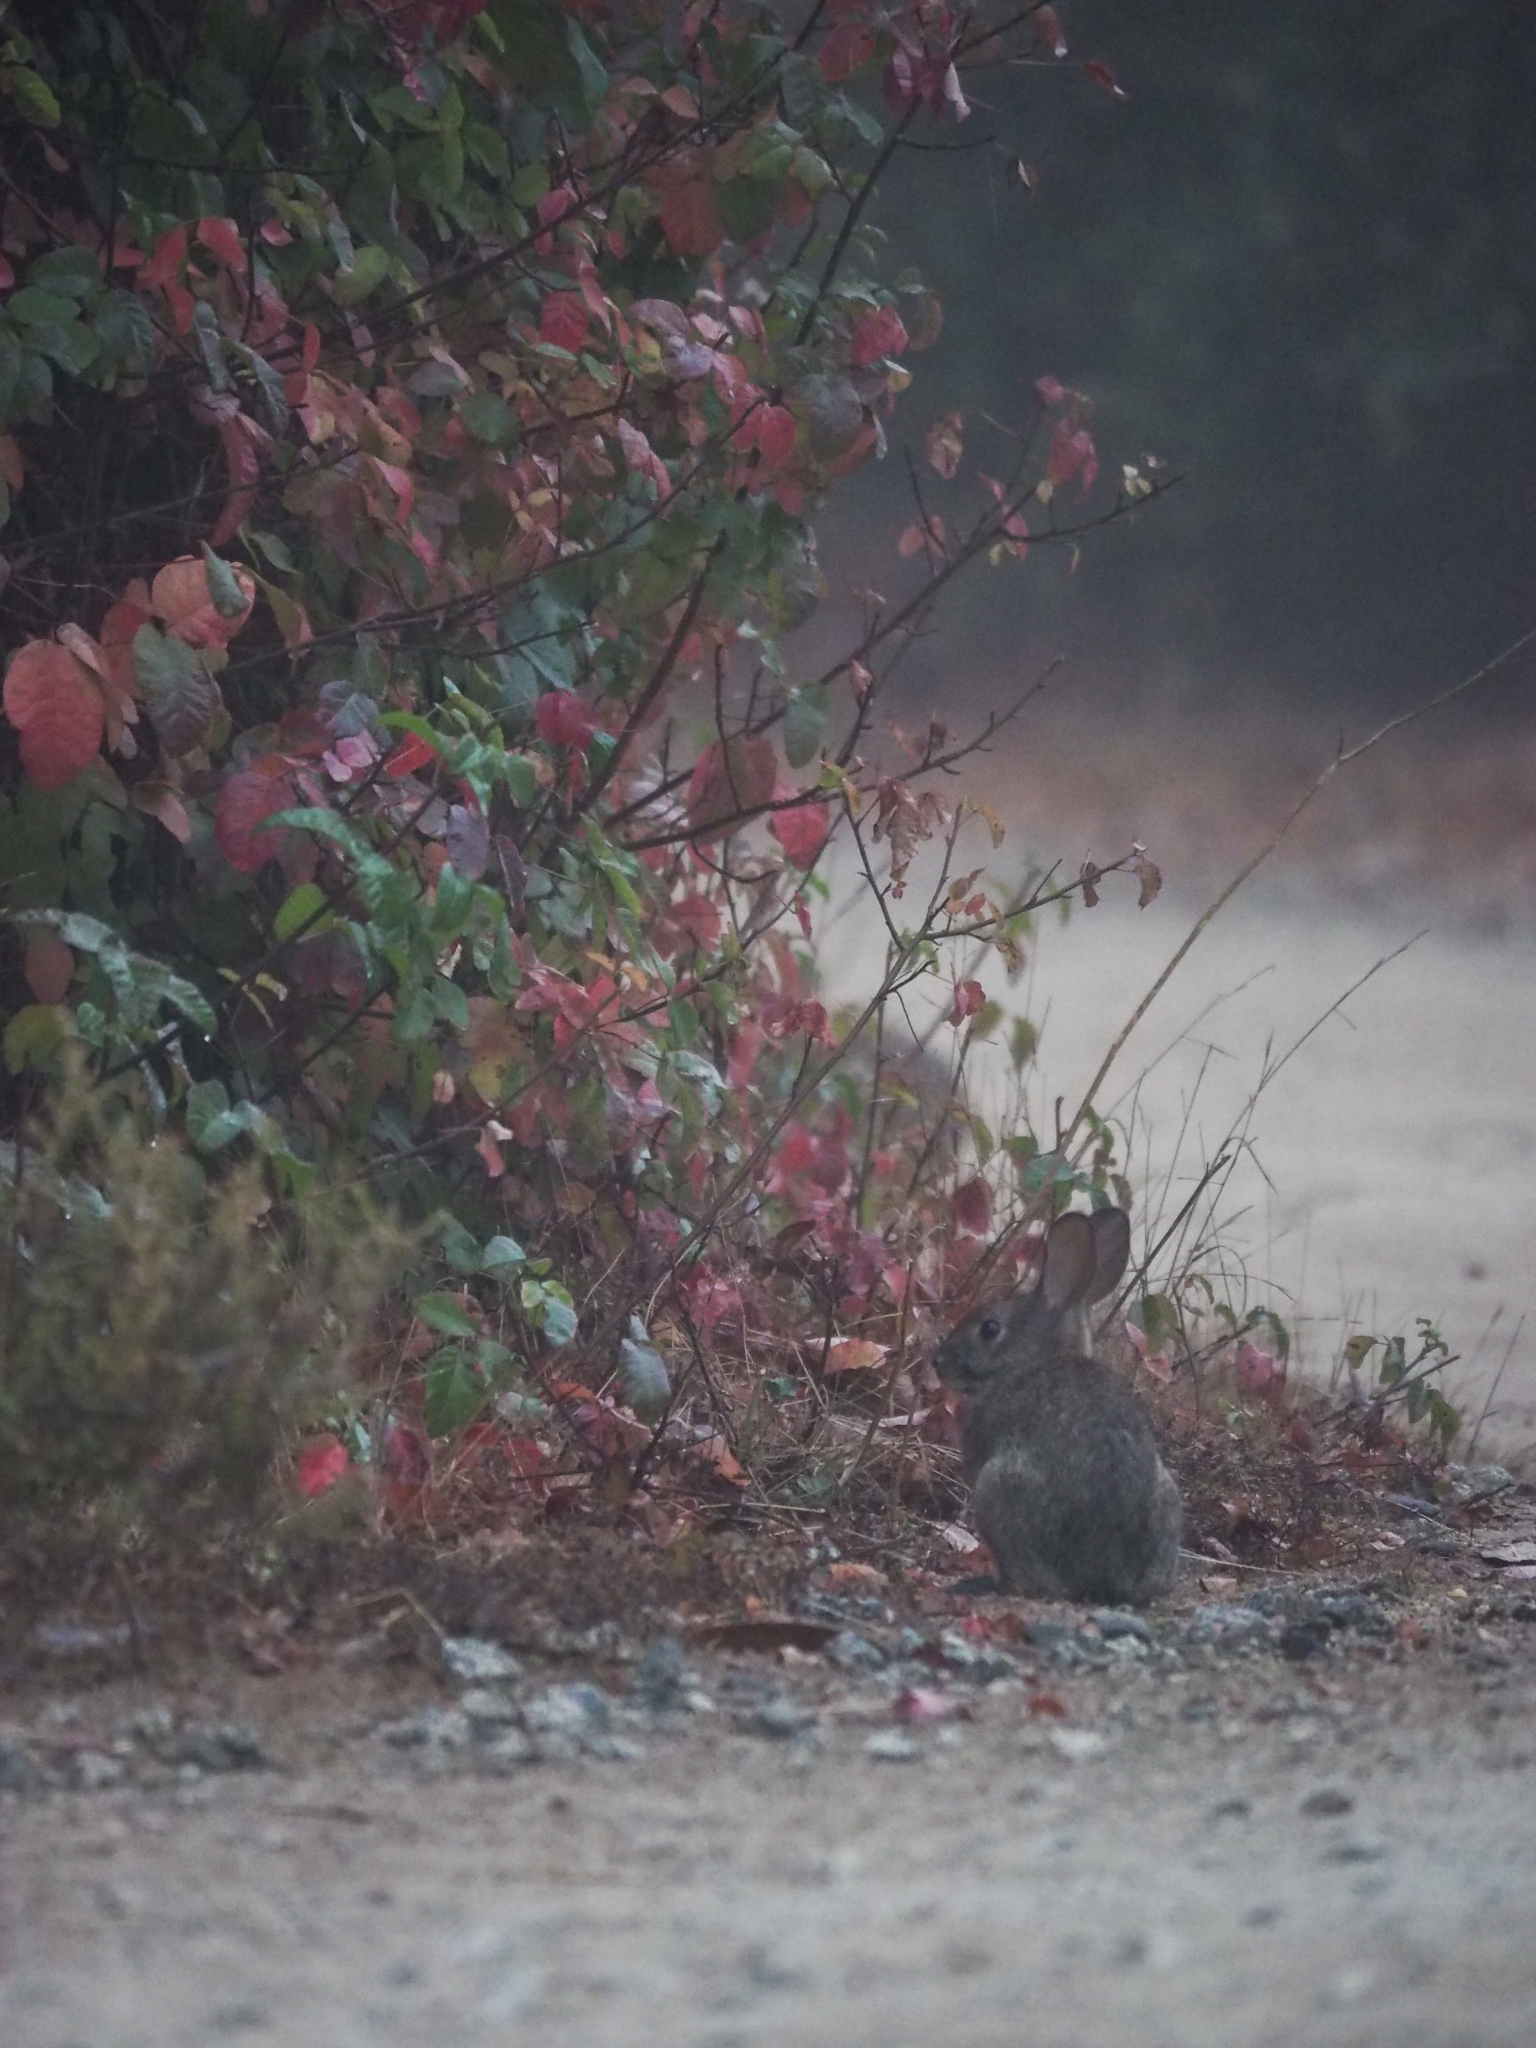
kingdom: Animalia
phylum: Chordata
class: Mammalia
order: Lagomorpha
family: Leporidae
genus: Sylvilagus
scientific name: Sylvilagus bachmani
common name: Brush rabbit
